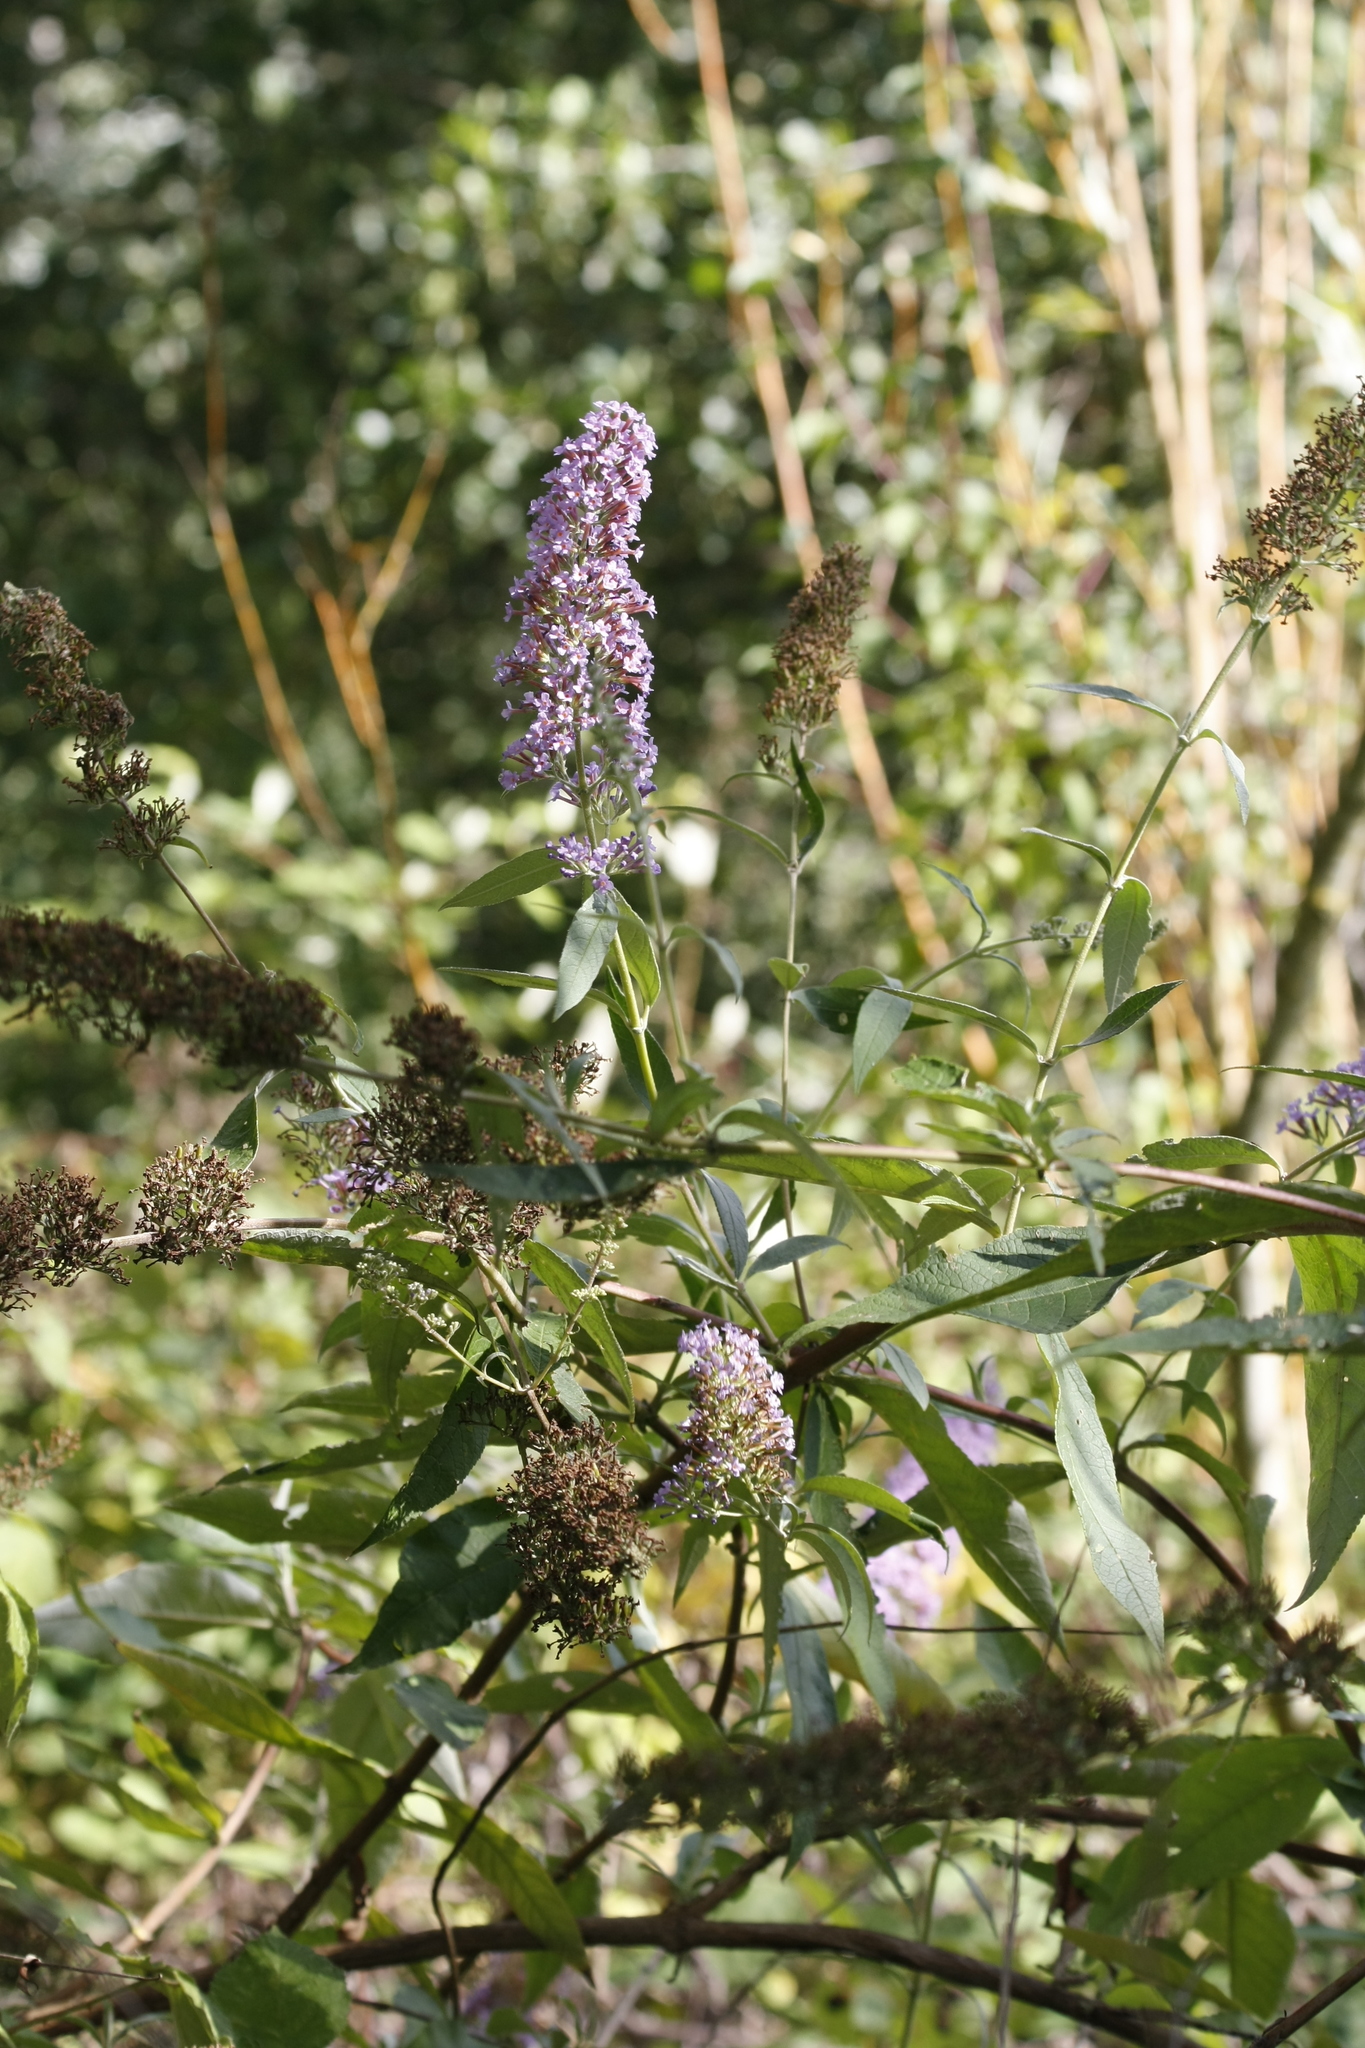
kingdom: Plantae
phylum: Tracheophyta
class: Magnoliopsida
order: Lamiales
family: Scrophulariaceae
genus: Buddleja
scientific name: Buddleja davidii
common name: Butterfly-bush
